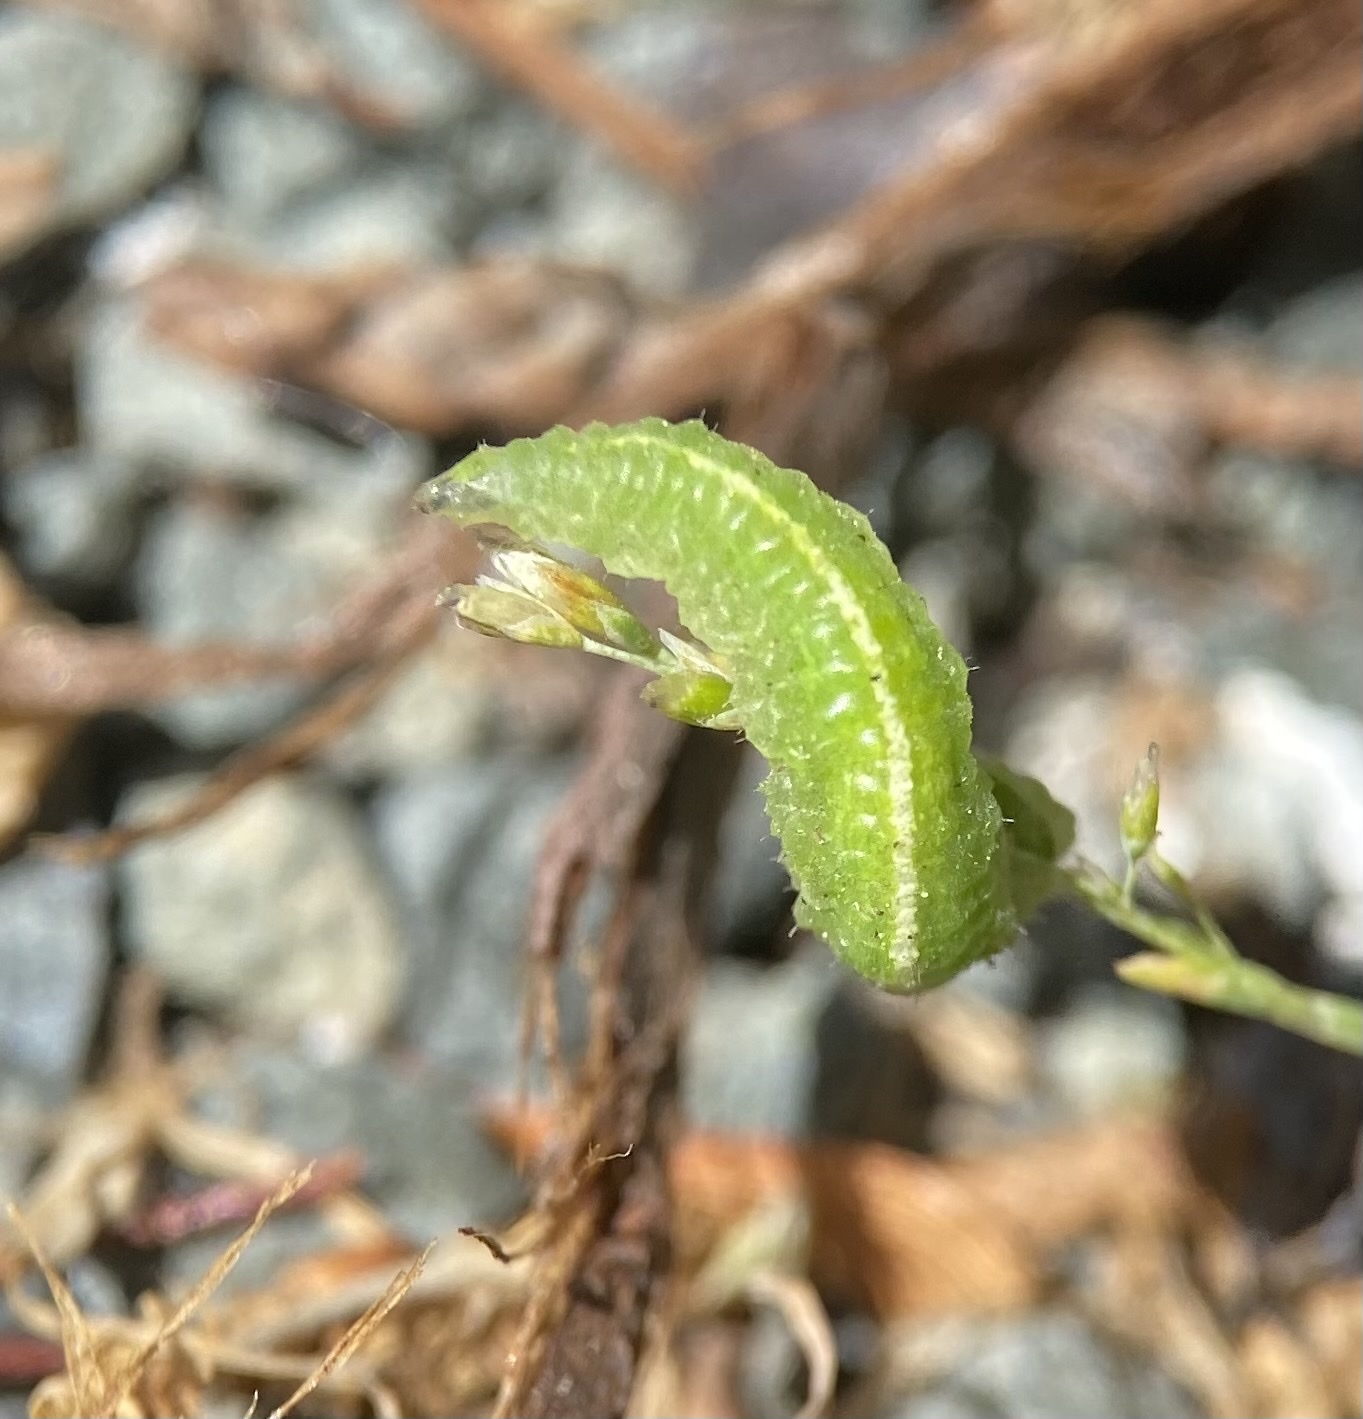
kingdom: Animalia
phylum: Arthropoda
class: Insecta
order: Diptera
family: Syrphidae
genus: Scaeva
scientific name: Scaeva affinis
